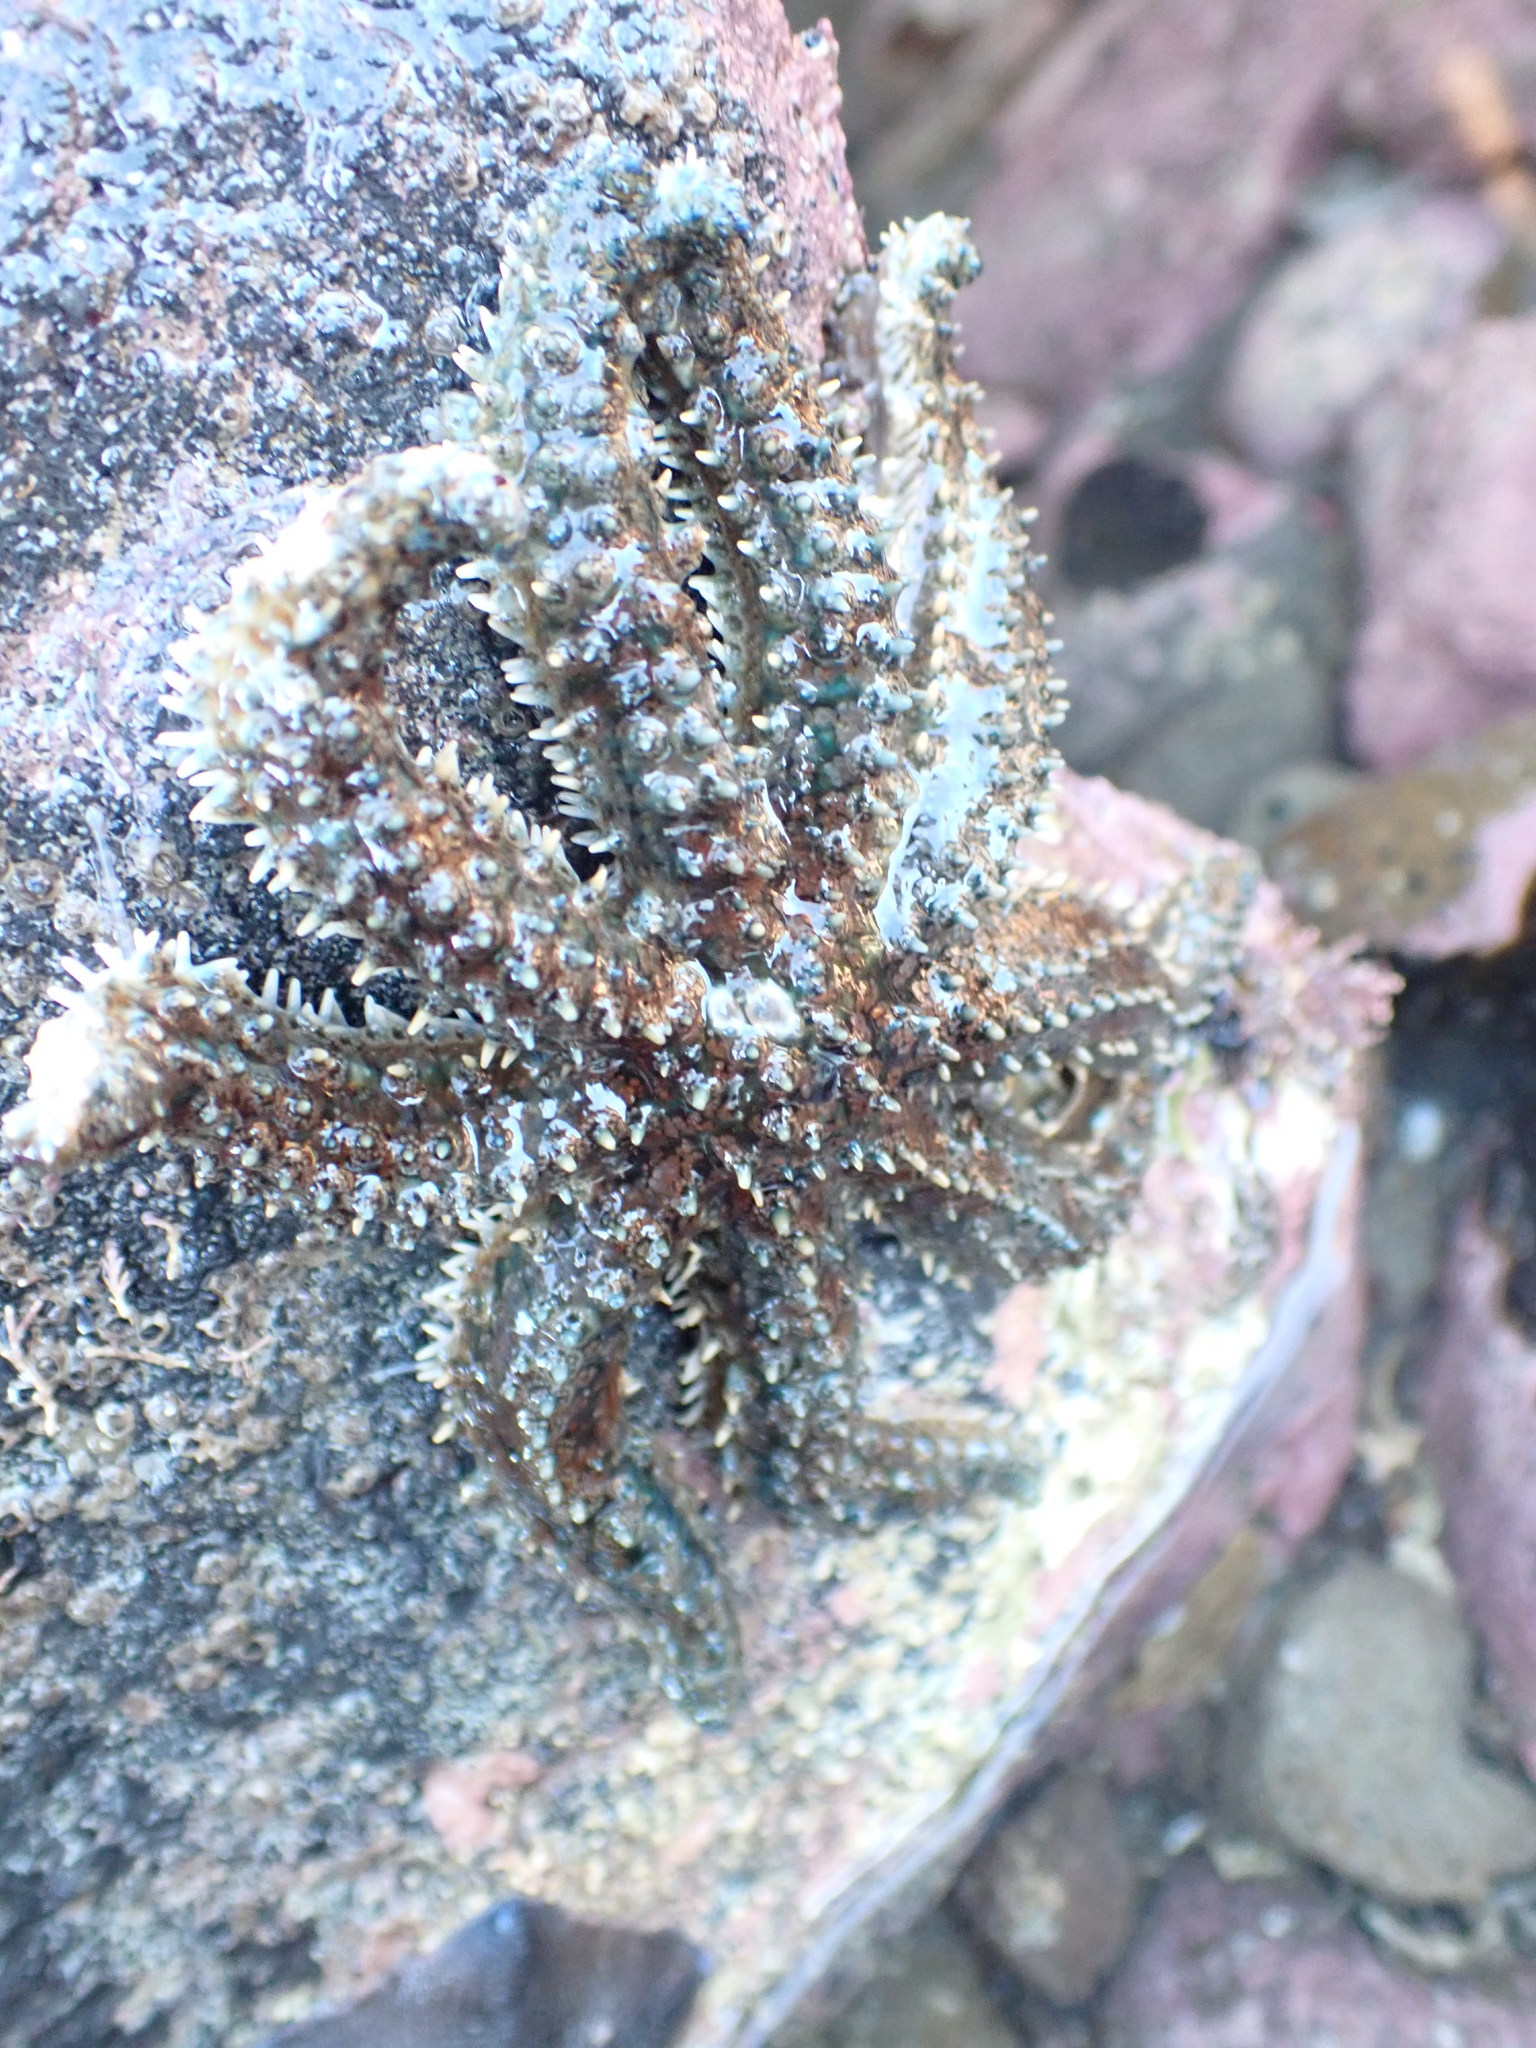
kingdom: Animalia
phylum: Echinodermata
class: Asteroidea
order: Forcipulatida
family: Asteriidae
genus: Coscinasterias
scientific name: Coscinasterias muricata
